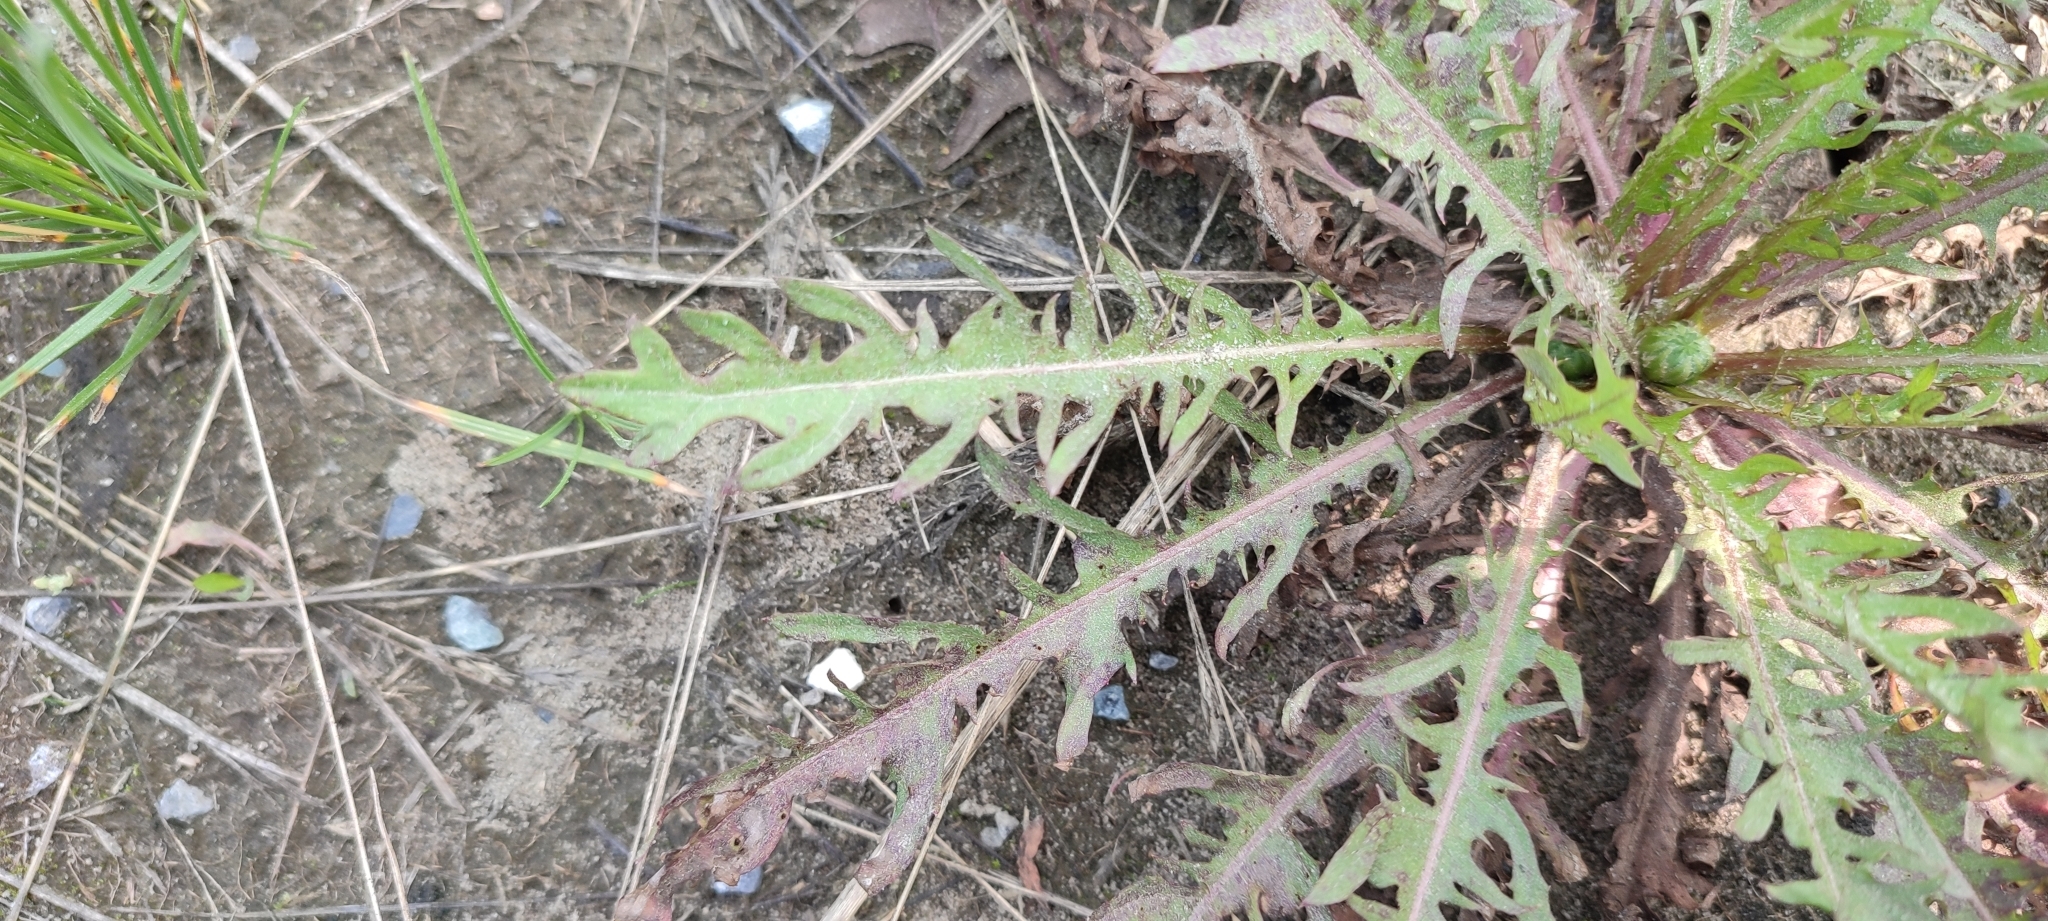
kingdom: Plantae
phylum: Tracheophyta
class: Magnoliopsida
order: Asterales
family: Asteraceae
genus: Taraxacum
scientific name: Taraxacum scariosum
